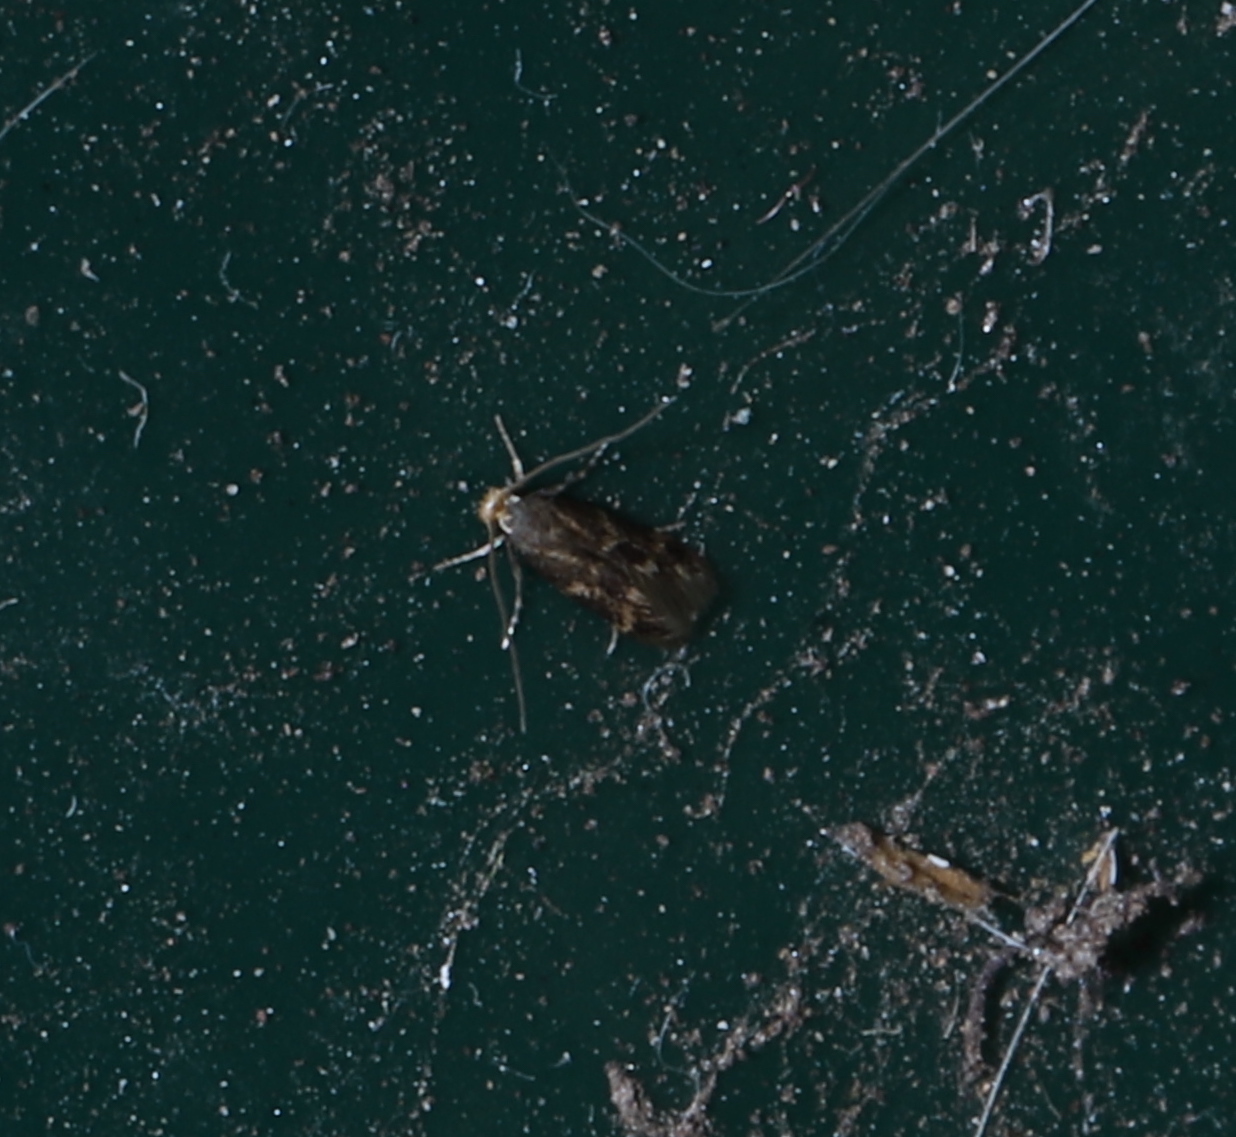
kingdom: Animalia
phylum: Arthropoda
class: Insecta
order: Lepidoptera
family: Tineidae
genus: Oinophila
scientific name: Oinophila v-flava
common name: Yellow v moth
